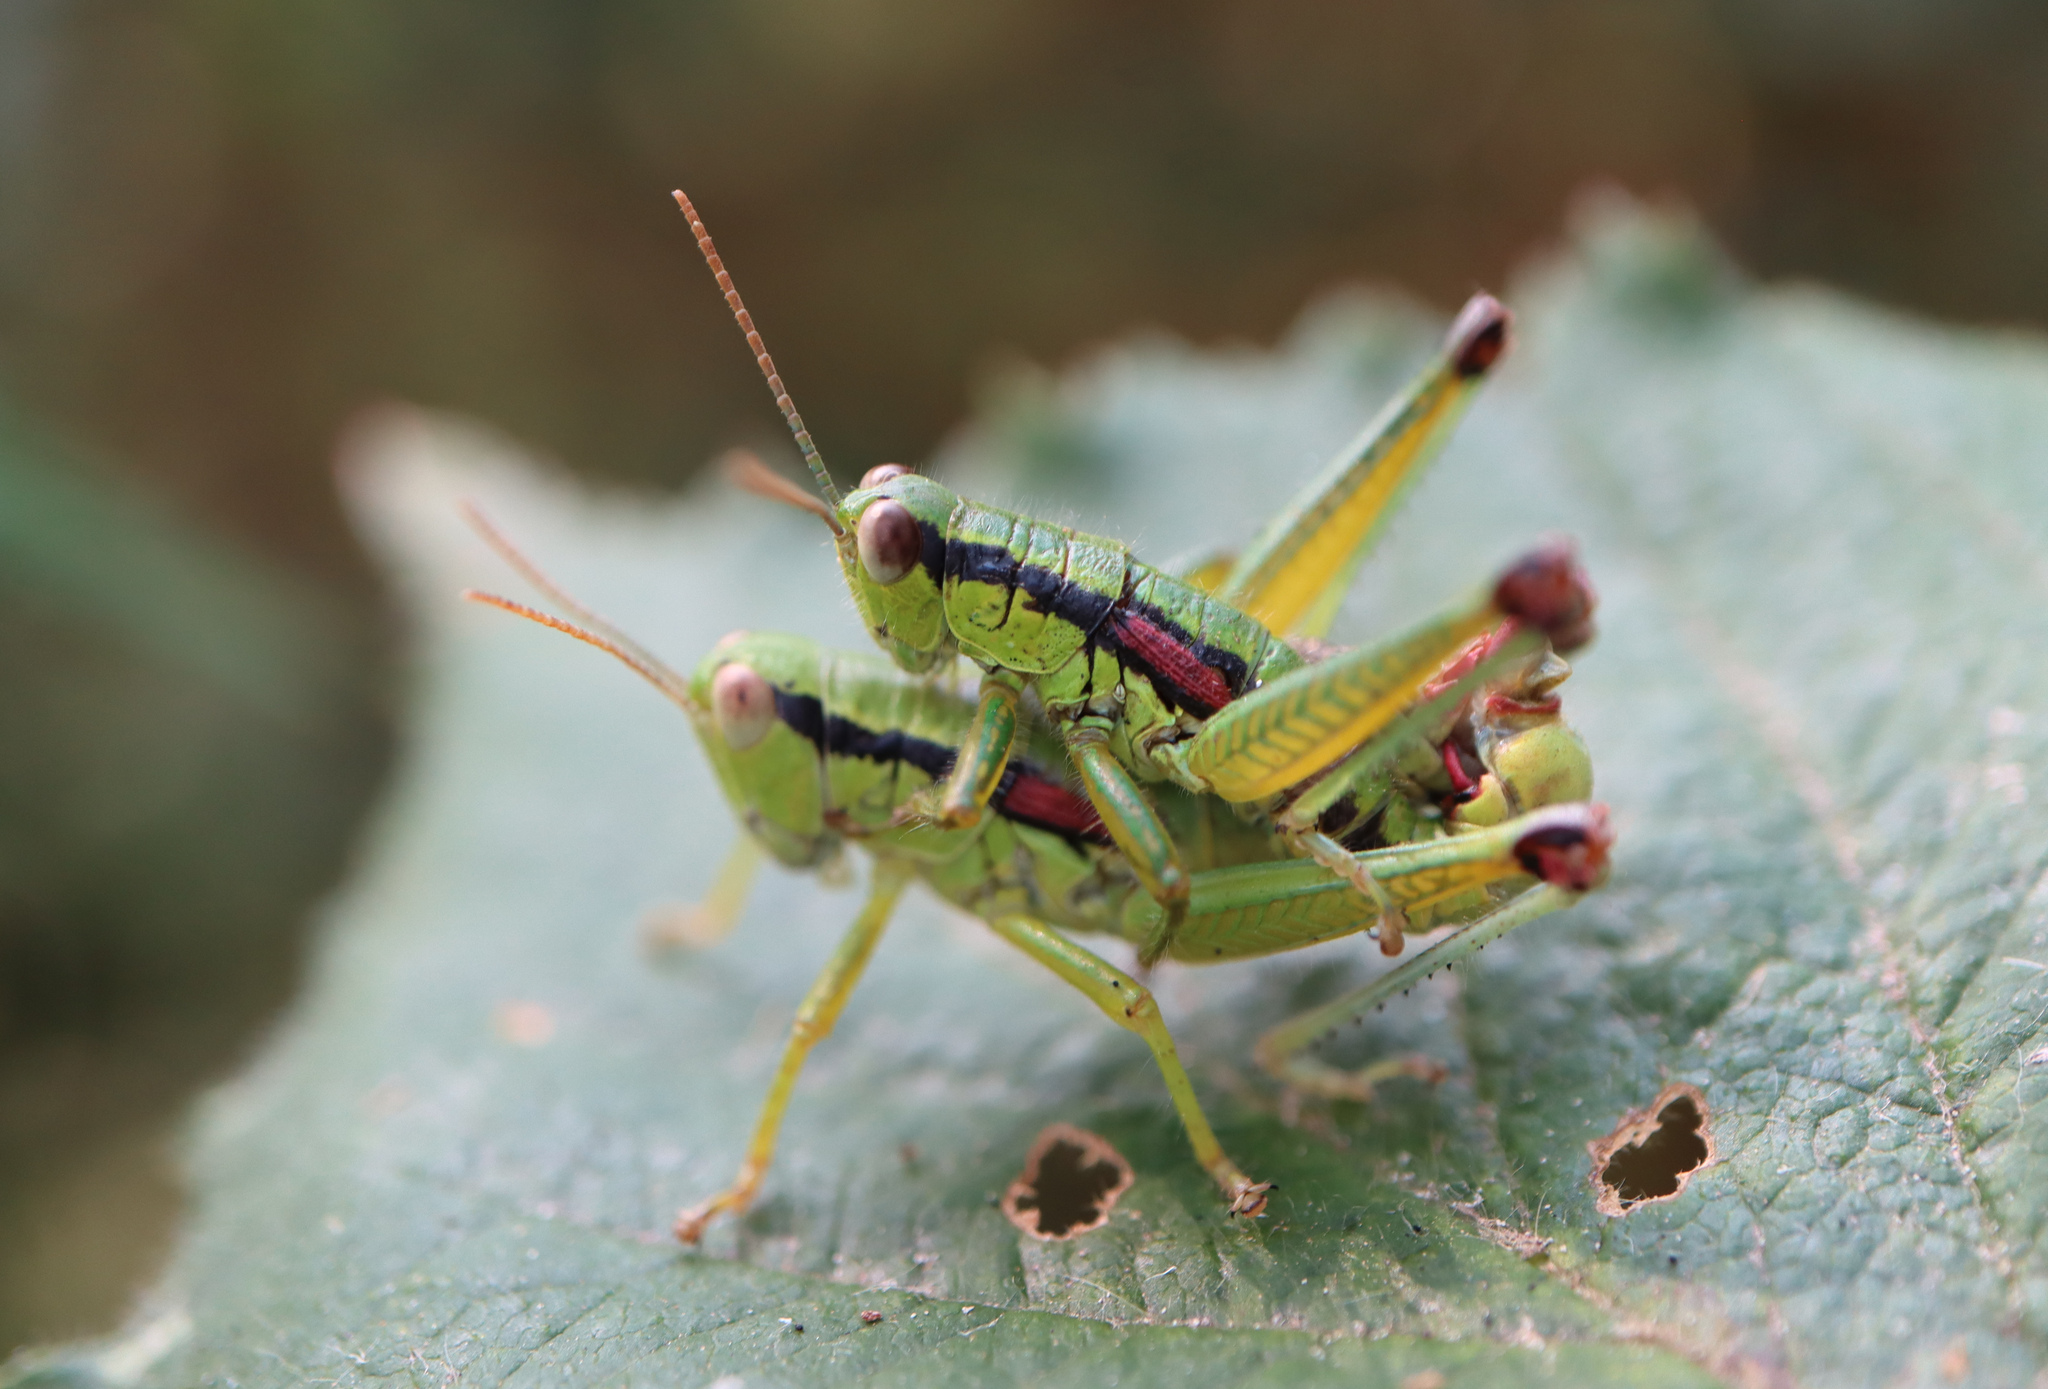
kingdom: Animalia
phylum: Arthropoda
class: Insecta
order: Orthoptera
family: Acrididae
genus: Odontopodisma
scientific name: Odontopodisma schmidtii
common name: Schmidt's mountain grasshopper
